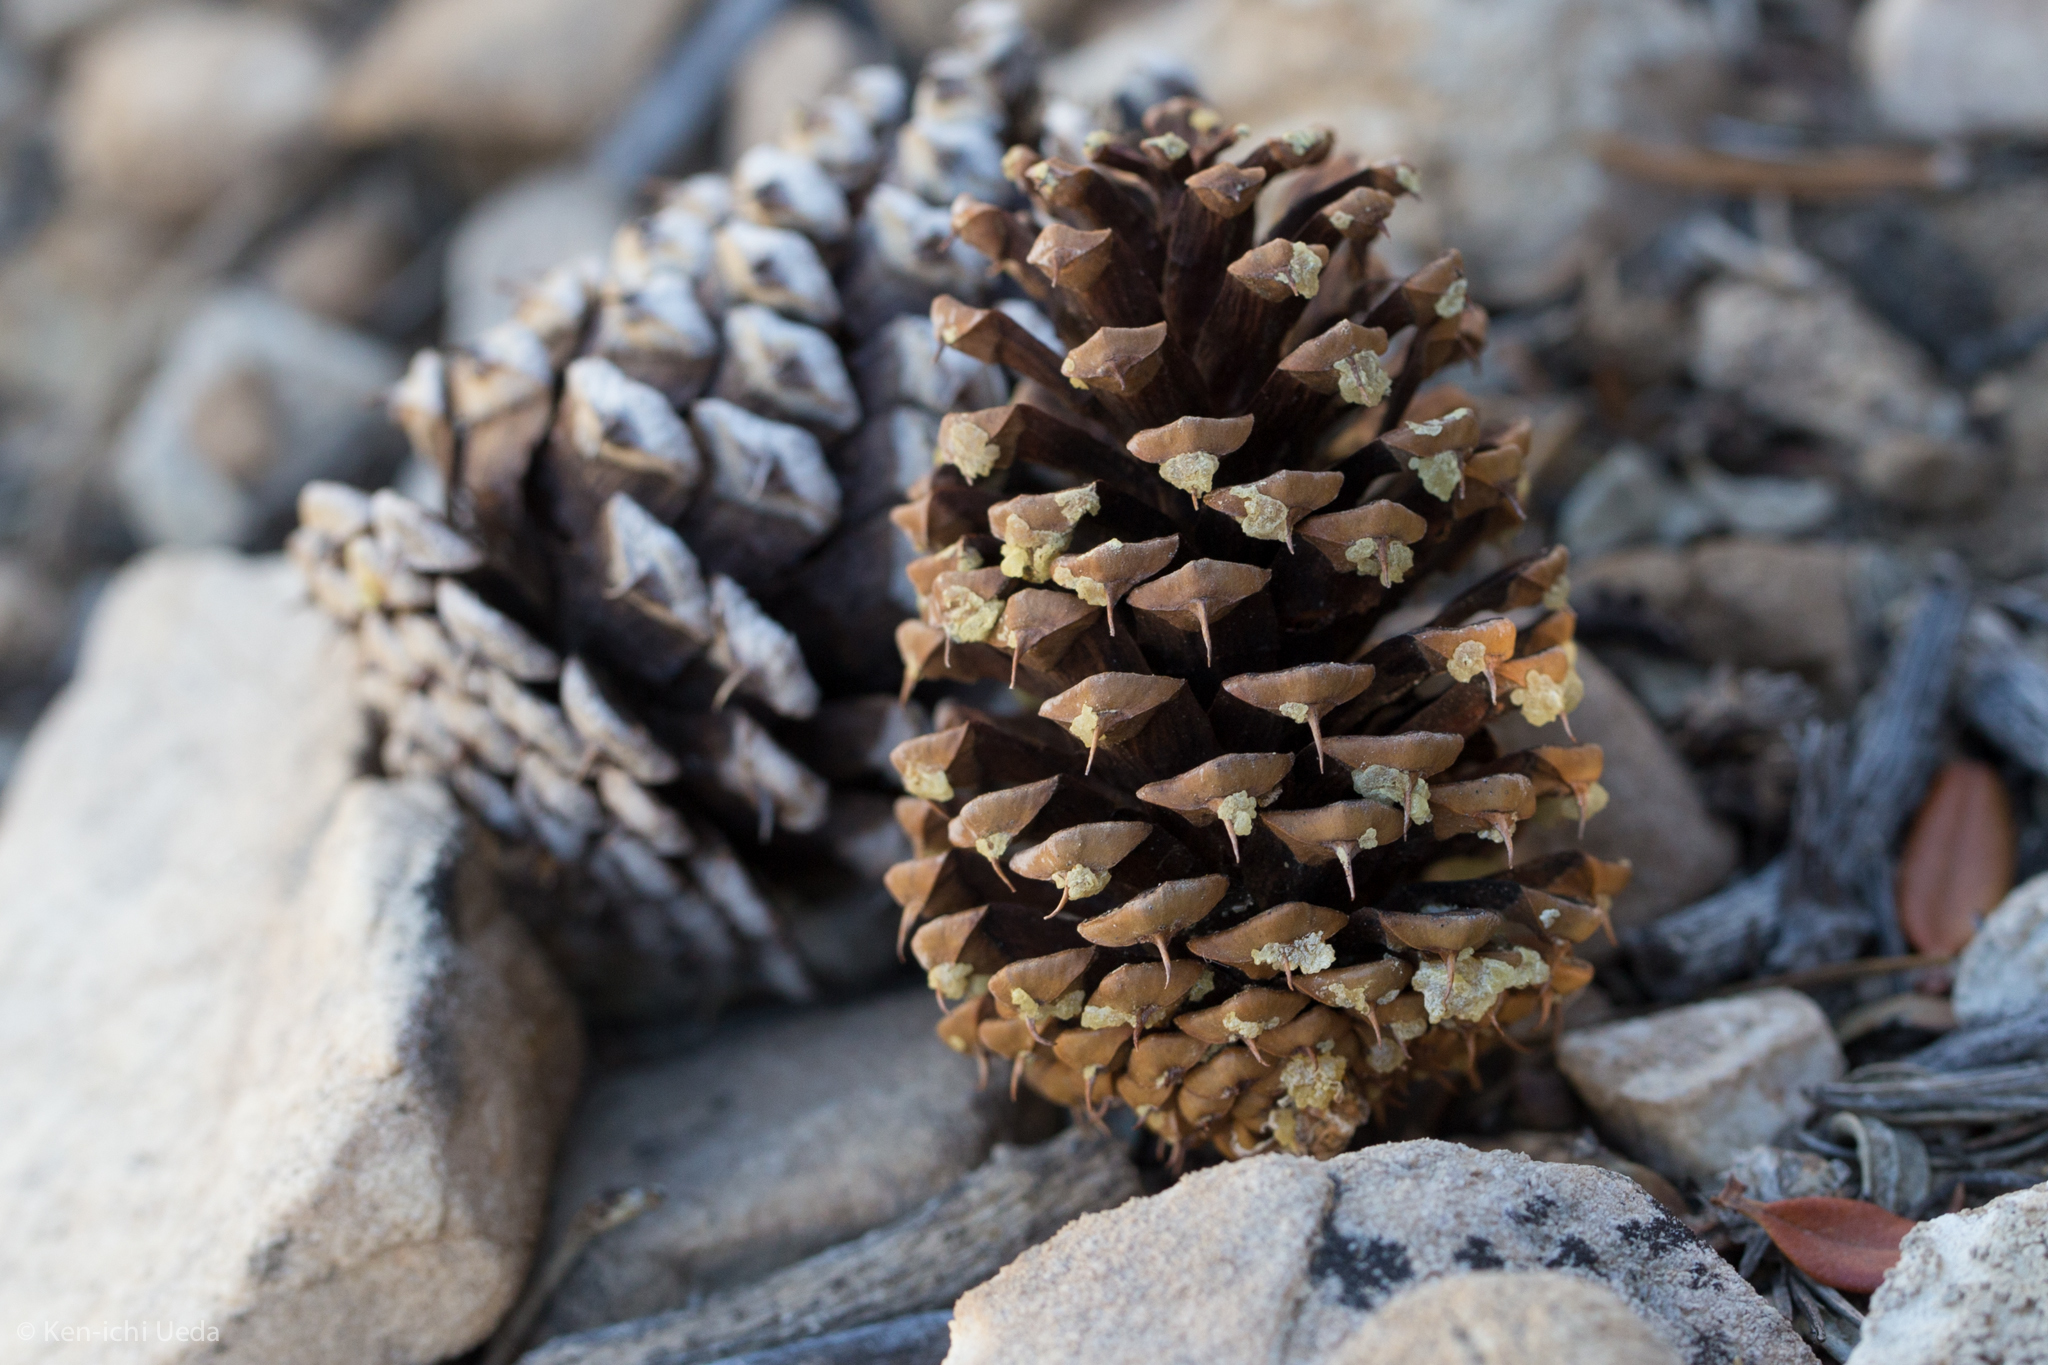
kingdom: Plantae
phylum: Tracheophyta
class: Pinopsida
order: Pinales
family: Pinaceae
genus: Pinus
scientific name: Pinus longaeva
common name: Intermountain bristlecone pine
